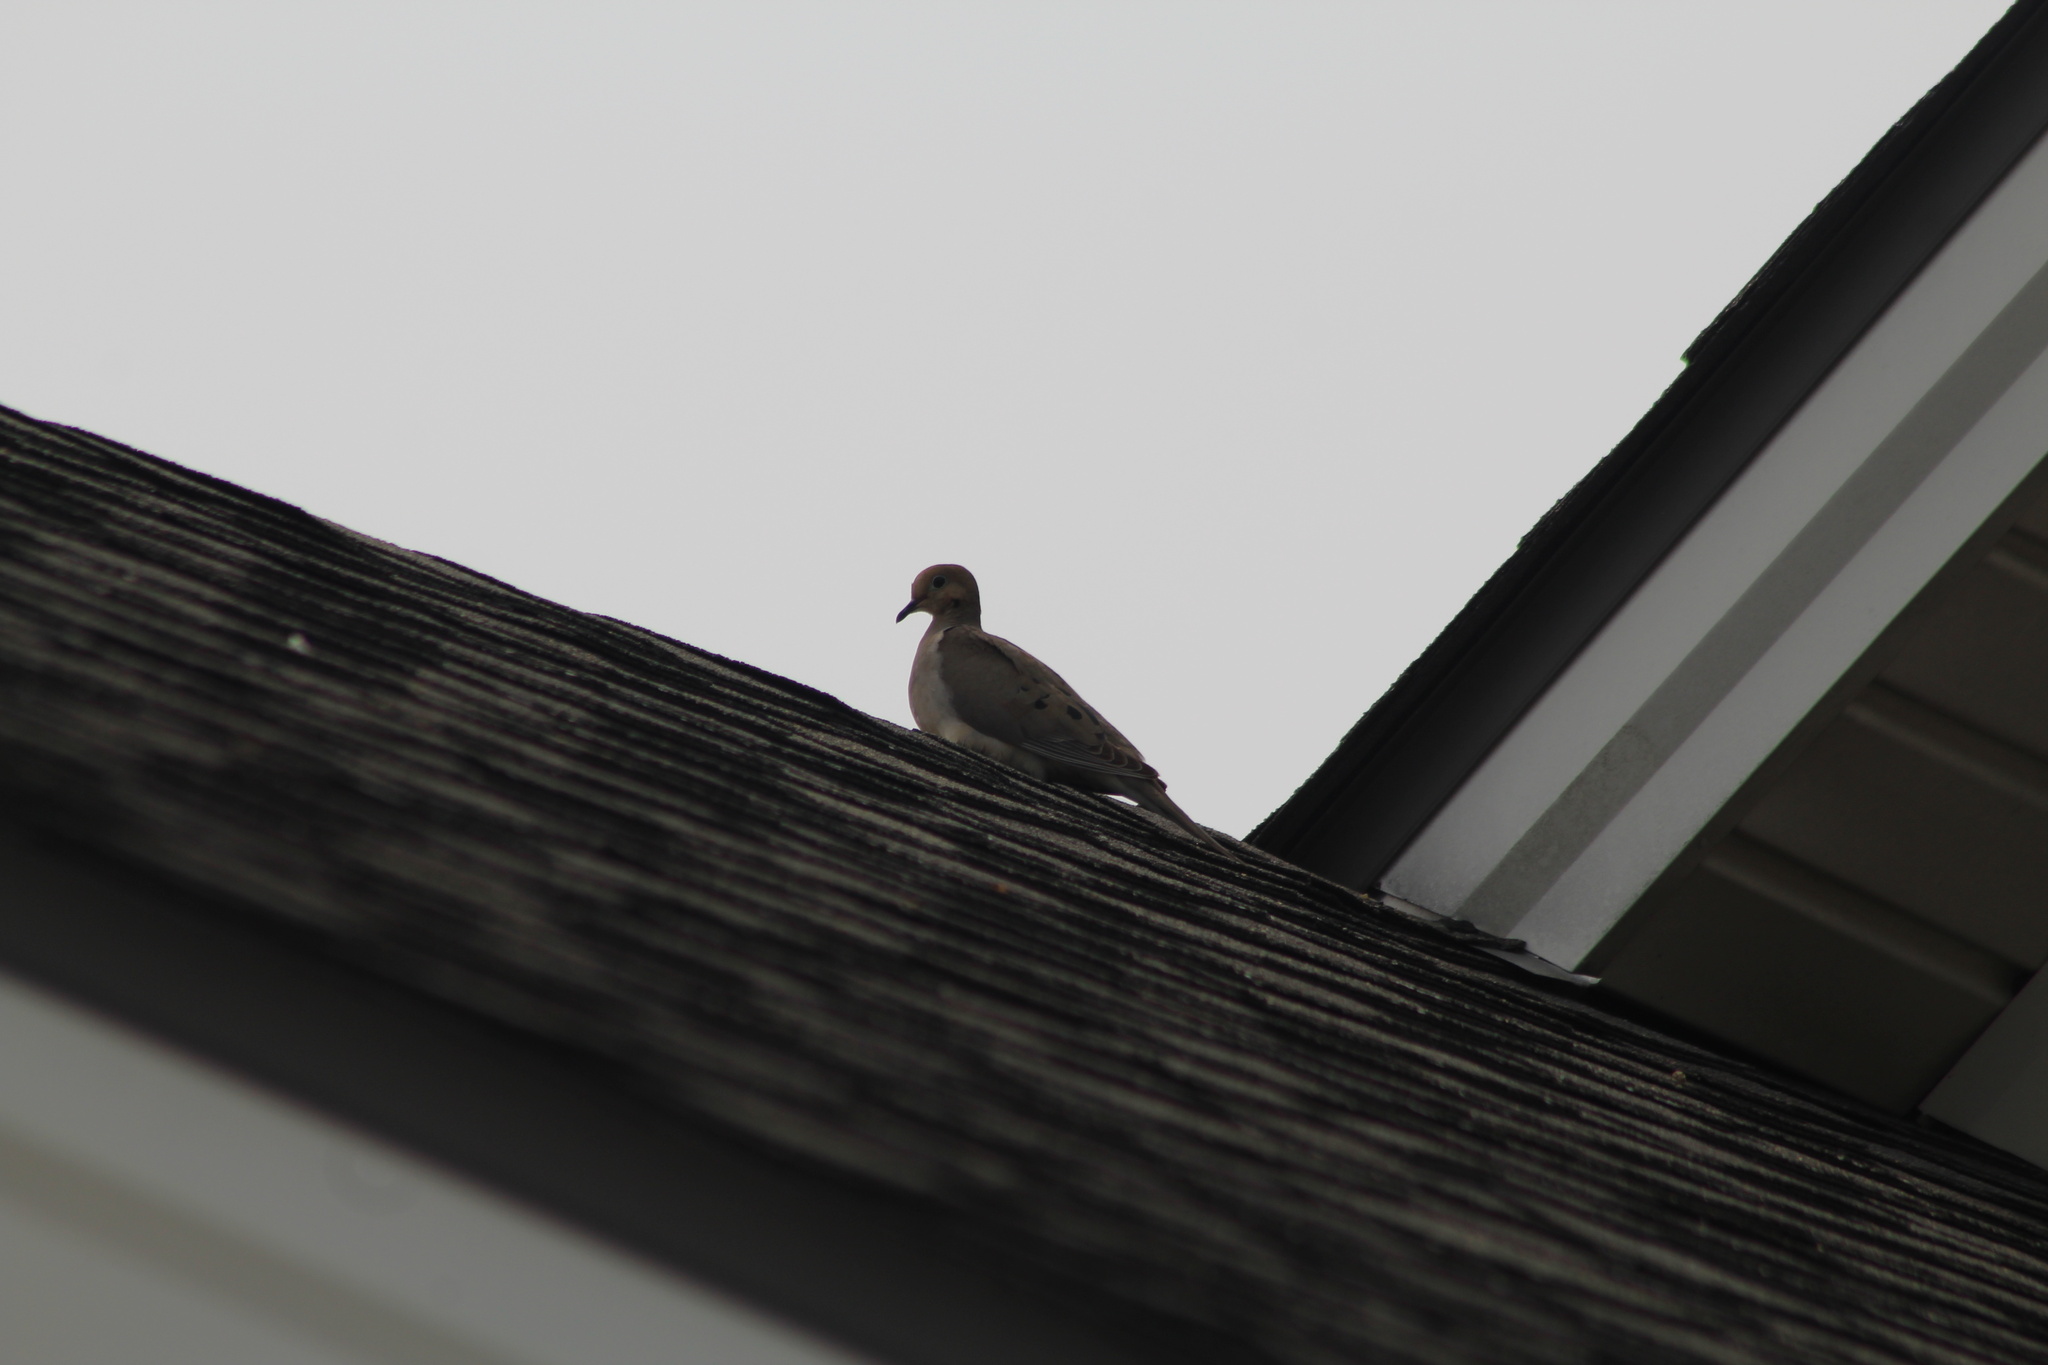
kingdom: Animalia
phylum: Chordata
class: Aves
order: Columbiformes
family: Columbidae
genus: Zenaida
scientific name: Zenaida macroura
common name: Mourning dove
